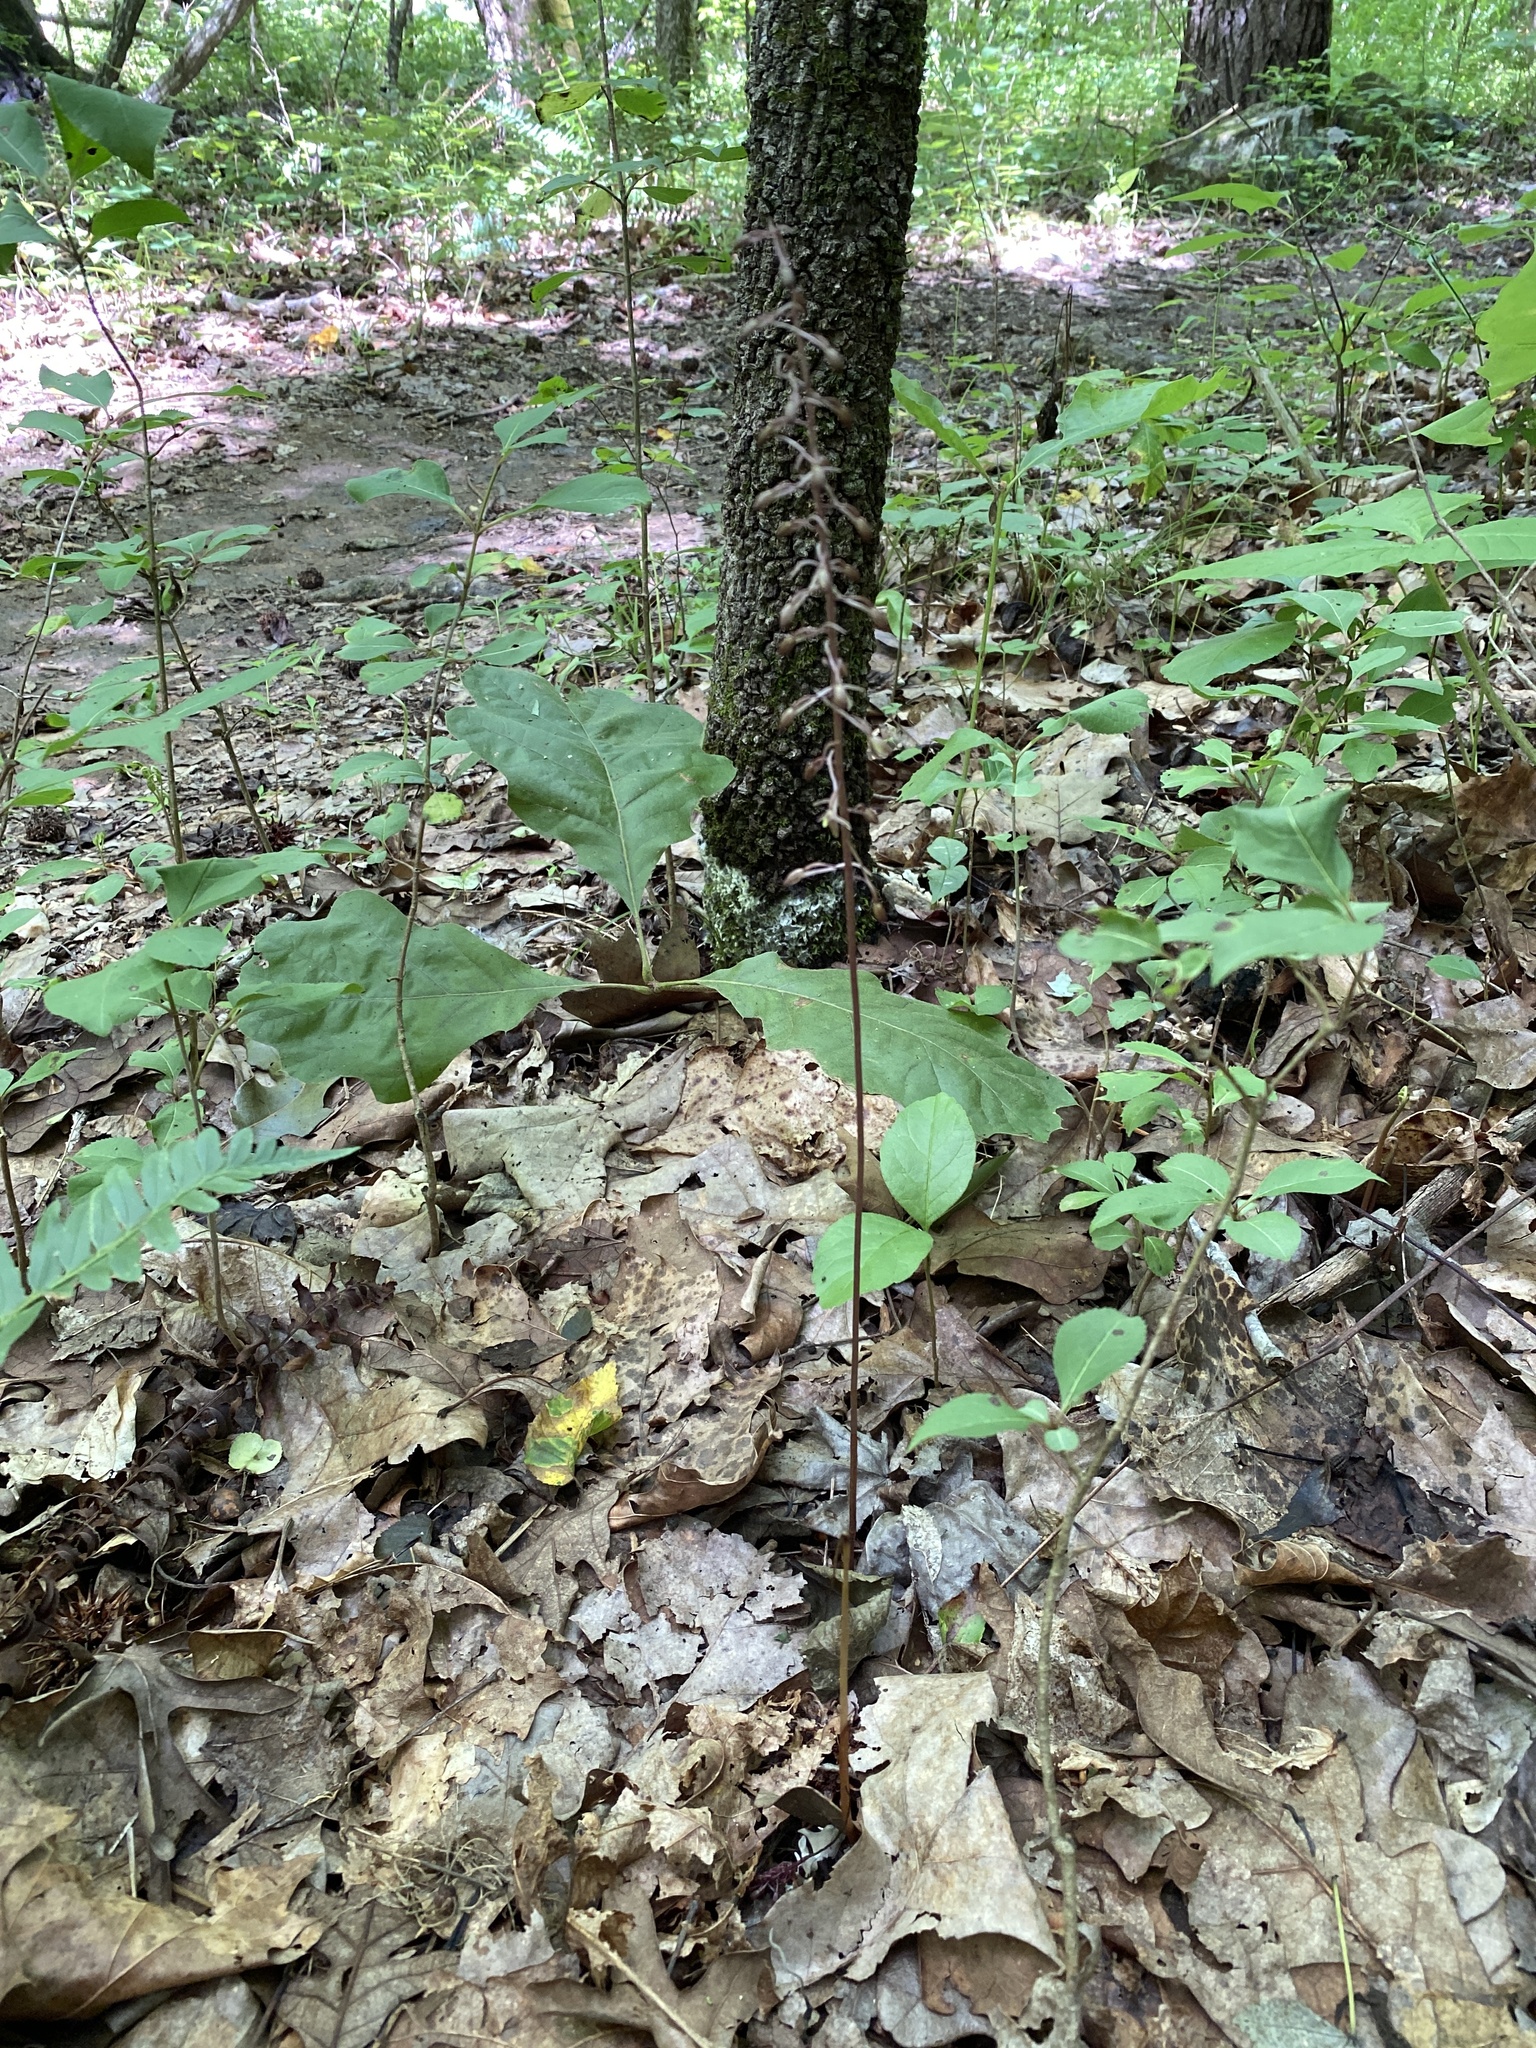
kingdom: Plantae
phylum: Tracheophyta
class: Liliopsida
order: Asparagales
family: Orchidaceae
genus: Tipularia
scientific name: Tipularia discolor
